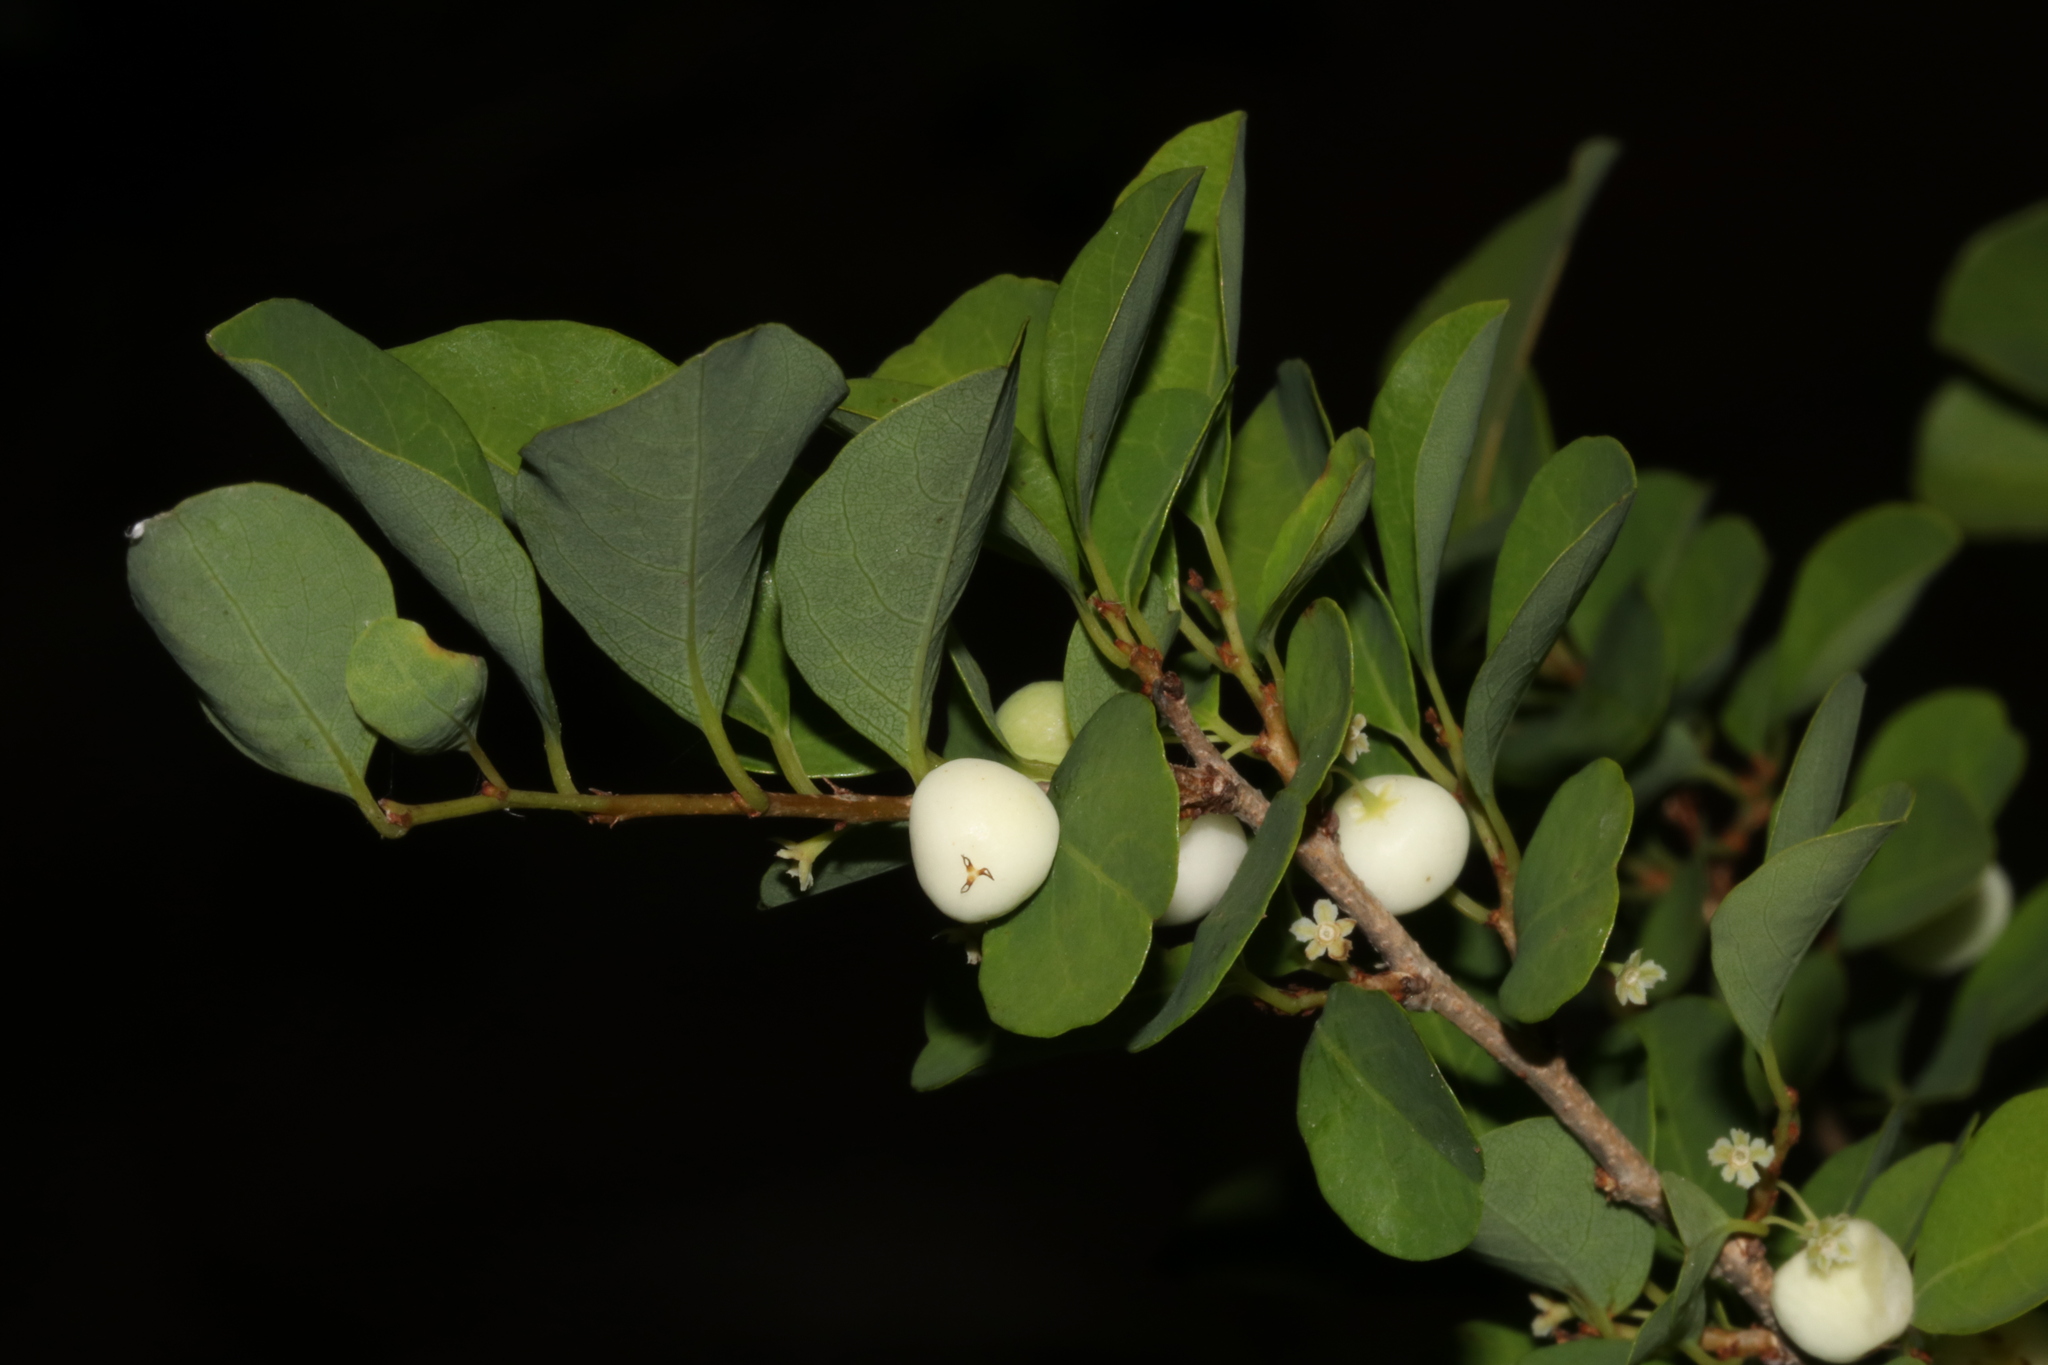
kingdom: Plantae
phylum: Tracheophyta
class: Magnoliopsida
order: Malpighiales
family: Phyllanthaceae
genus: Flueggea
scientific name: Flueggea virosa
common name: Common bushweed
